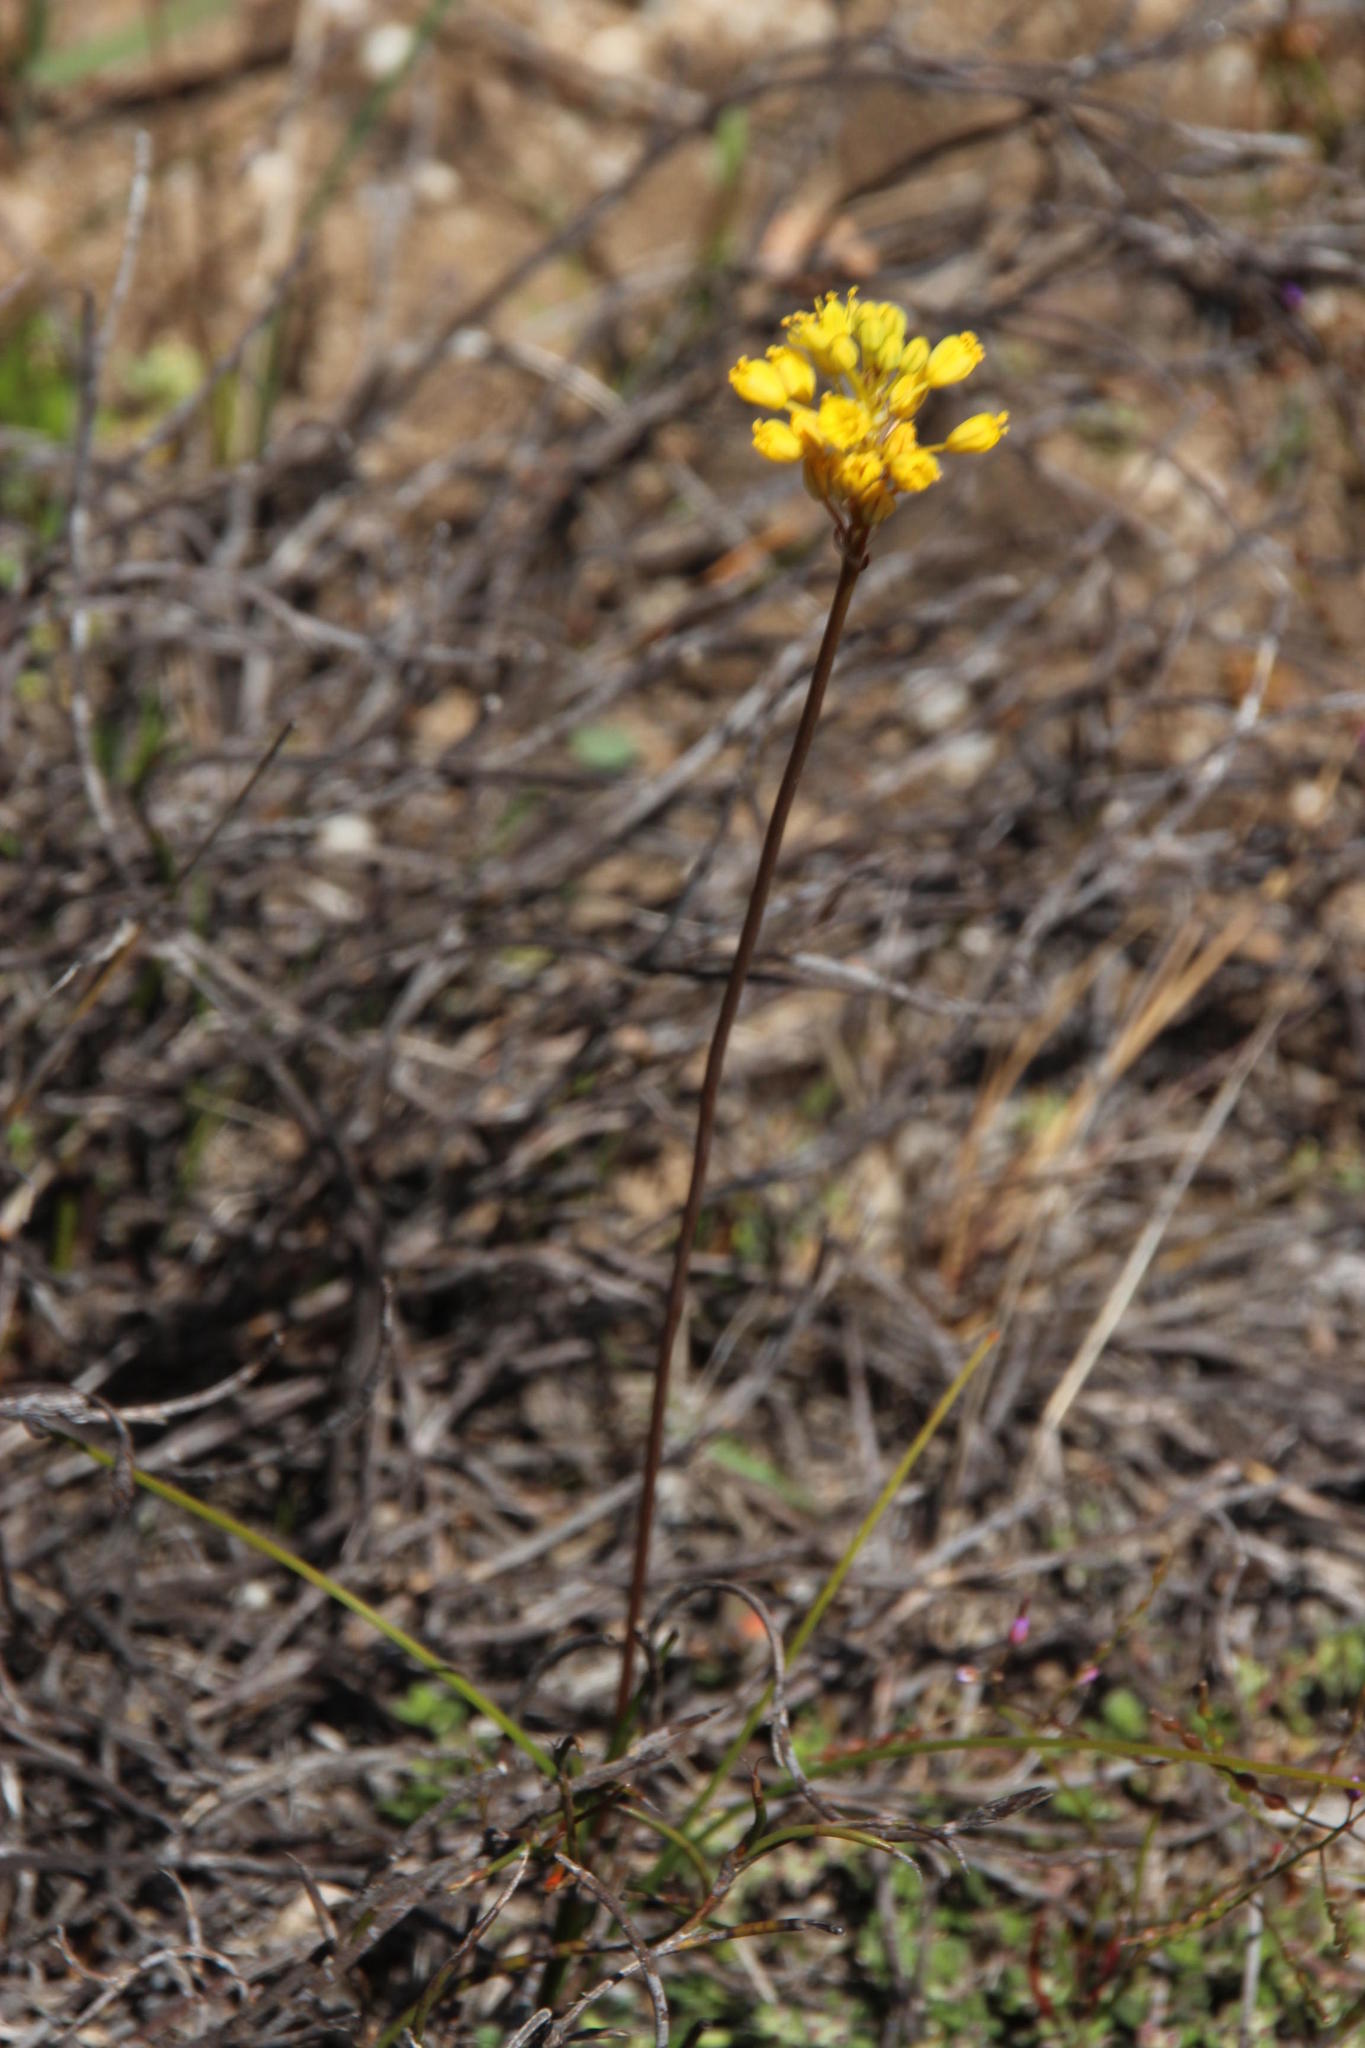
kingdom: Plantae
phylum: Tracheophyta
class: Liliopsida
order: Asparagales
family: Asphodelaceae
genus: Bulbinella
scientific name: Bulbinella triquetra
